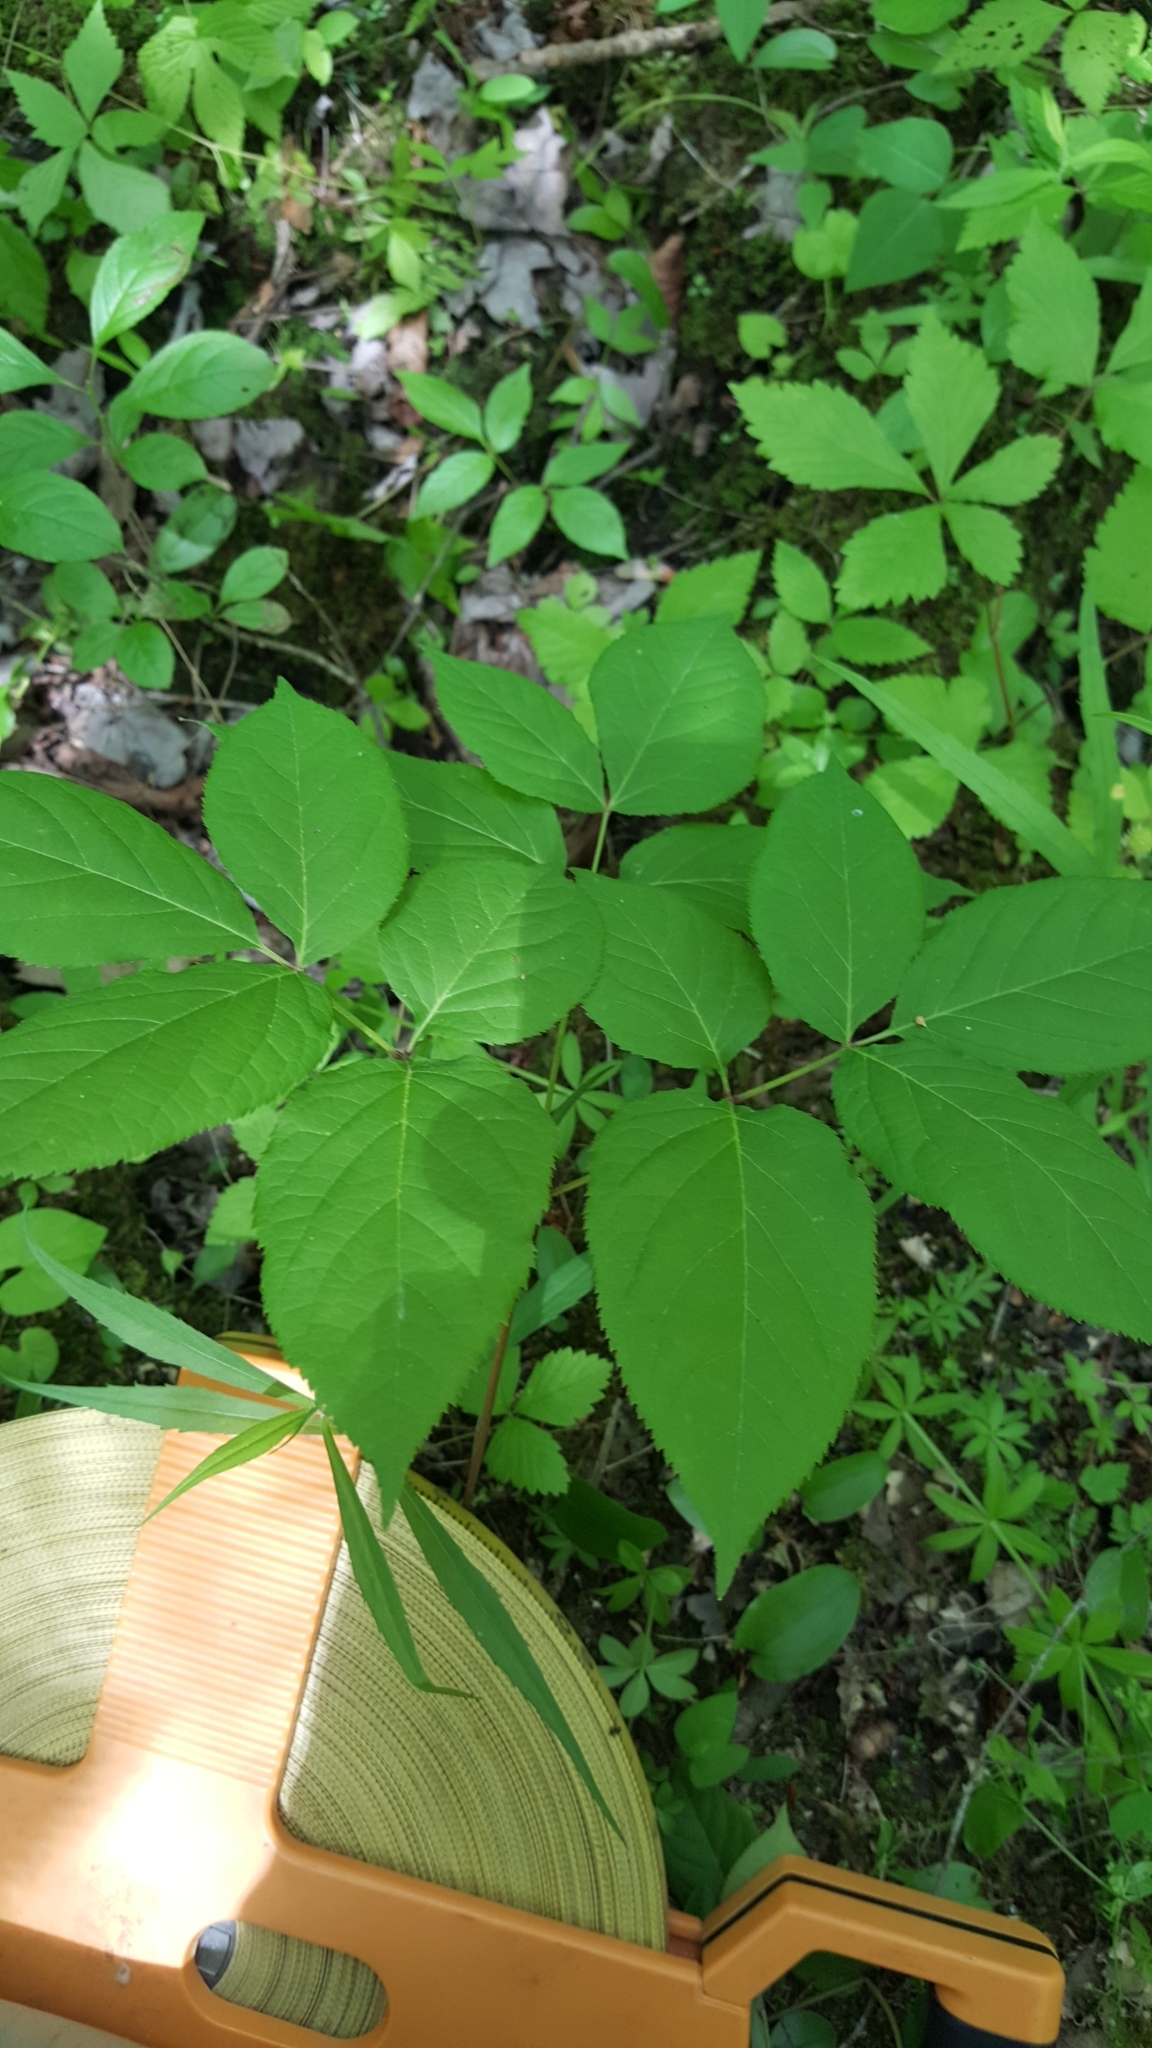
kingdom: Plantae
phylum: Tracheophyta
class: Magnoliopsida
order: Apiales
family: Araliaceae
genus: Aralia
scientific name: Aralia nudicaulis
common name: Wild sarsaparilla
